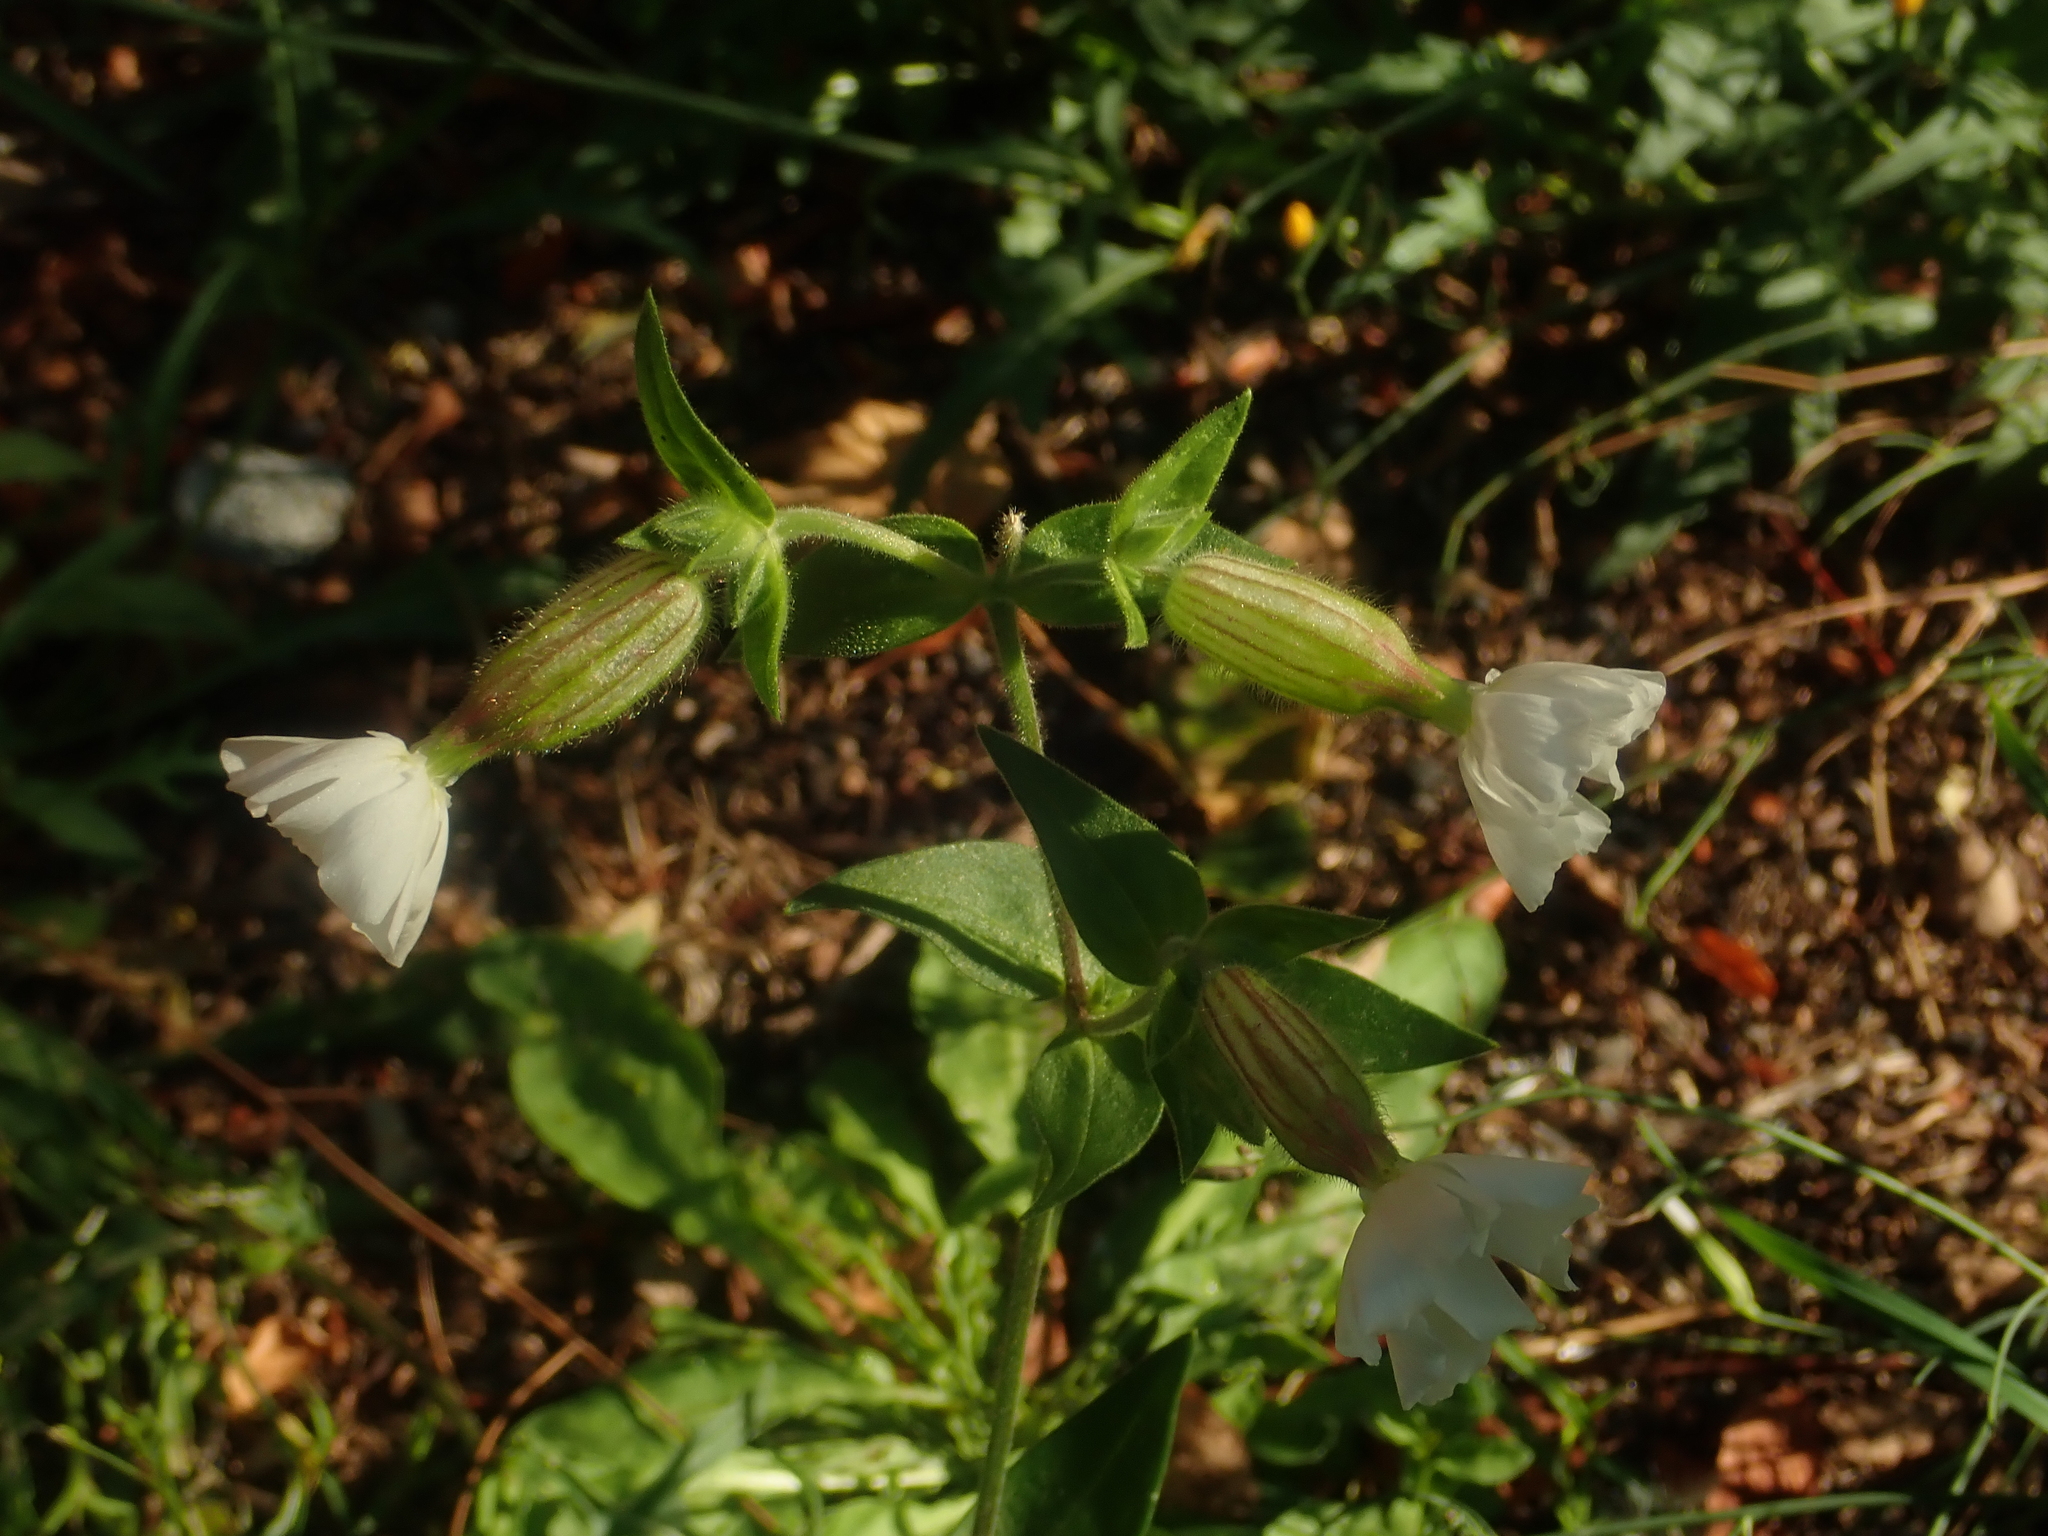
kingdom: Plantae
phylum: Tracheophyta
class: Magnoliopsida
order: Caryophyllales
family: Caryophyllaceae
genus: Silene
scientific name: Silene latifolia
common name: White campion
